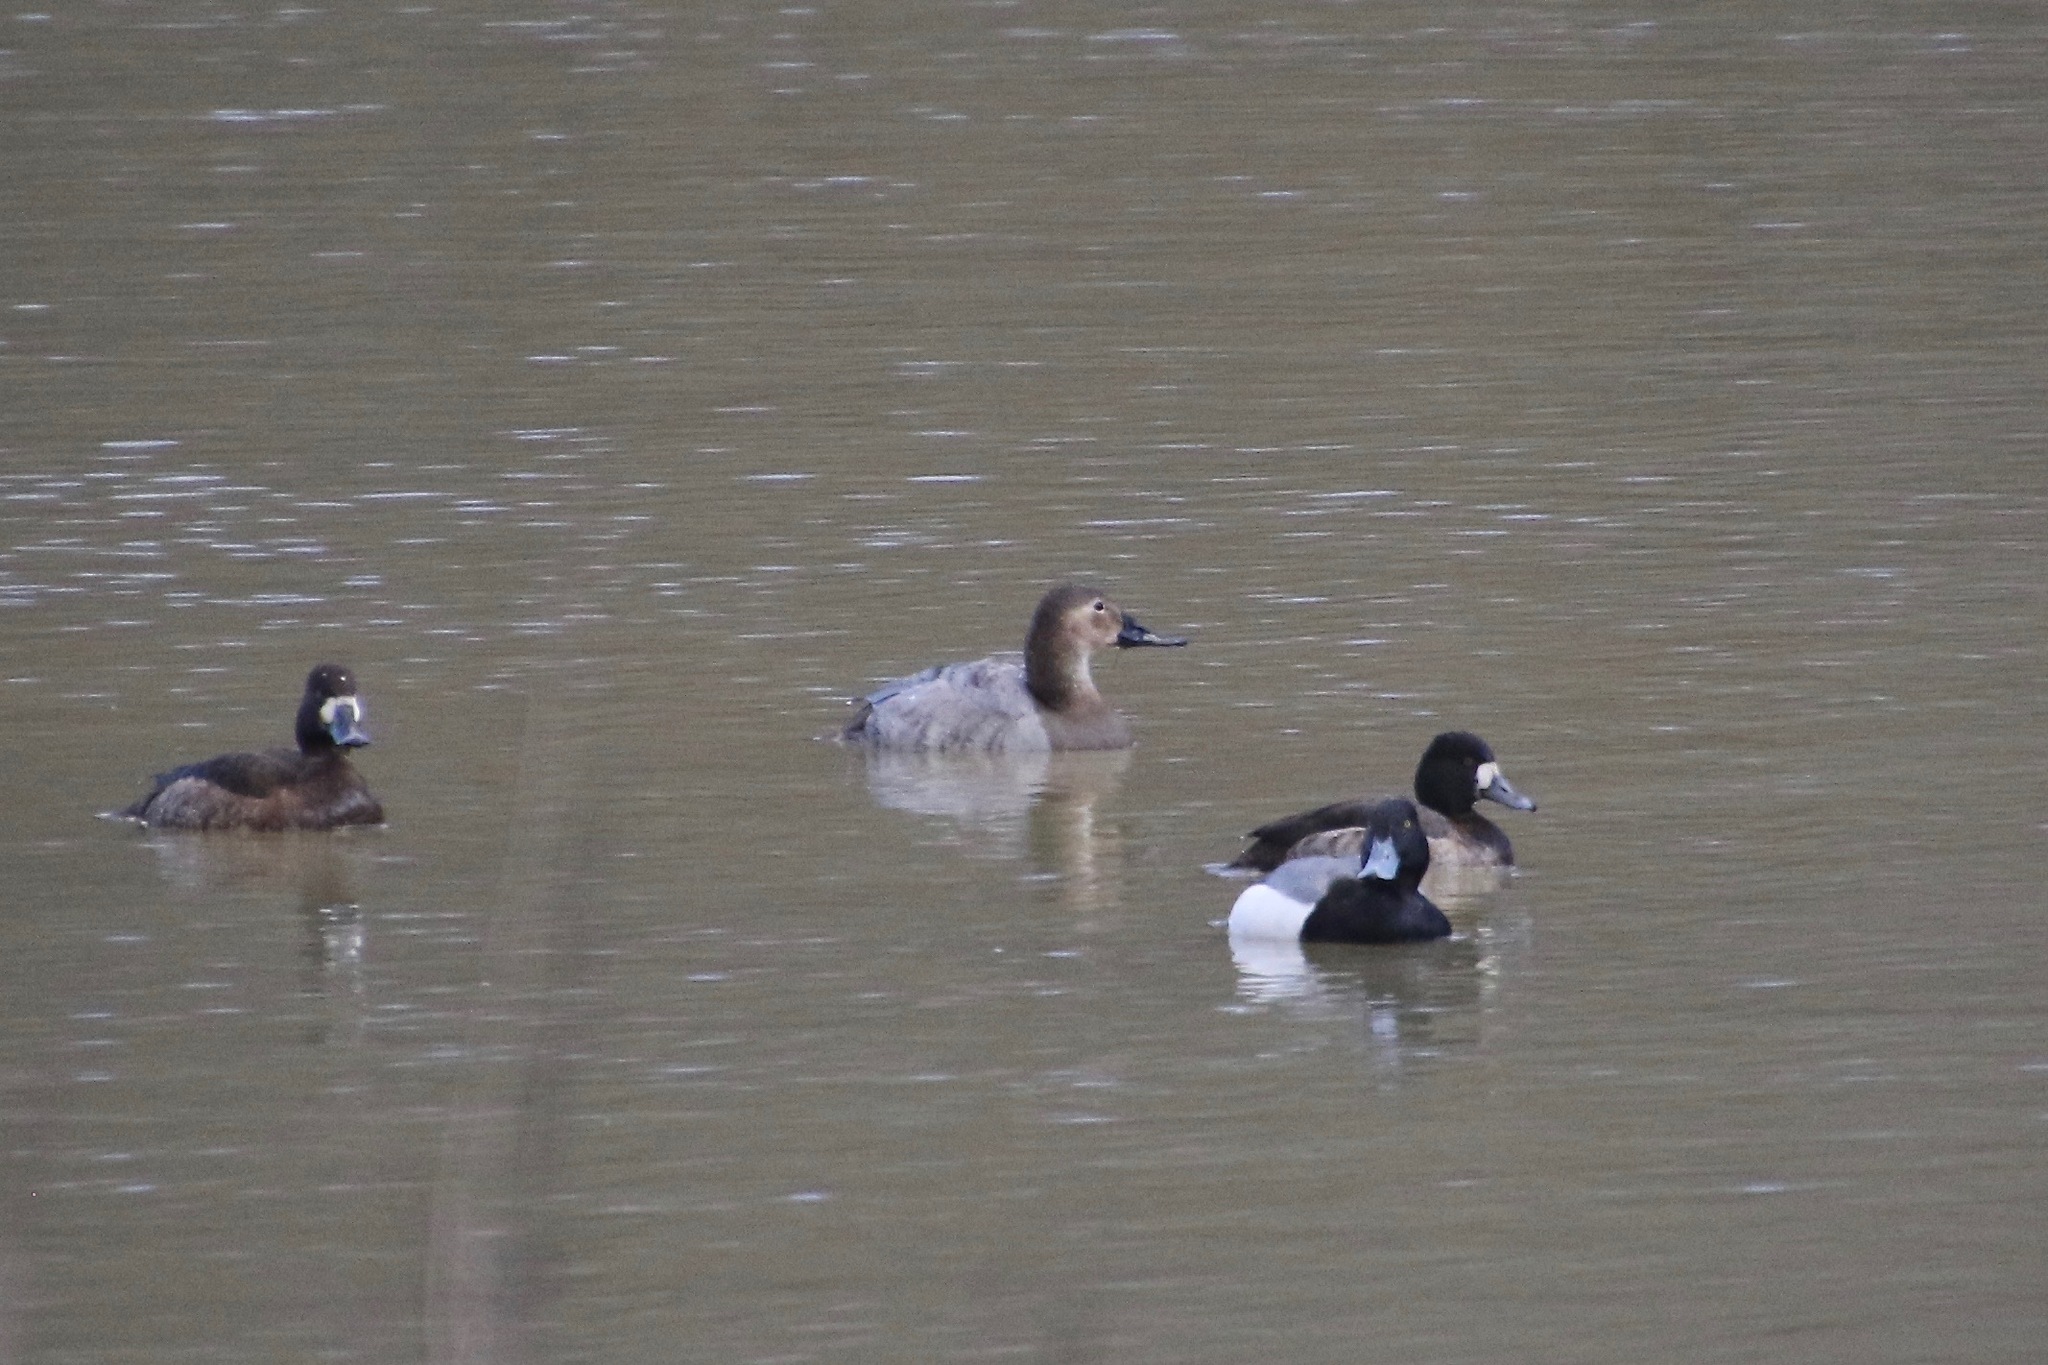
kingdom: Animalia
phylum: Chordata
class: Aves
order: Anseriformes
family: Anatidae
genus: Aythya
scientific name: Aythya marila
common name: Greater scaup
